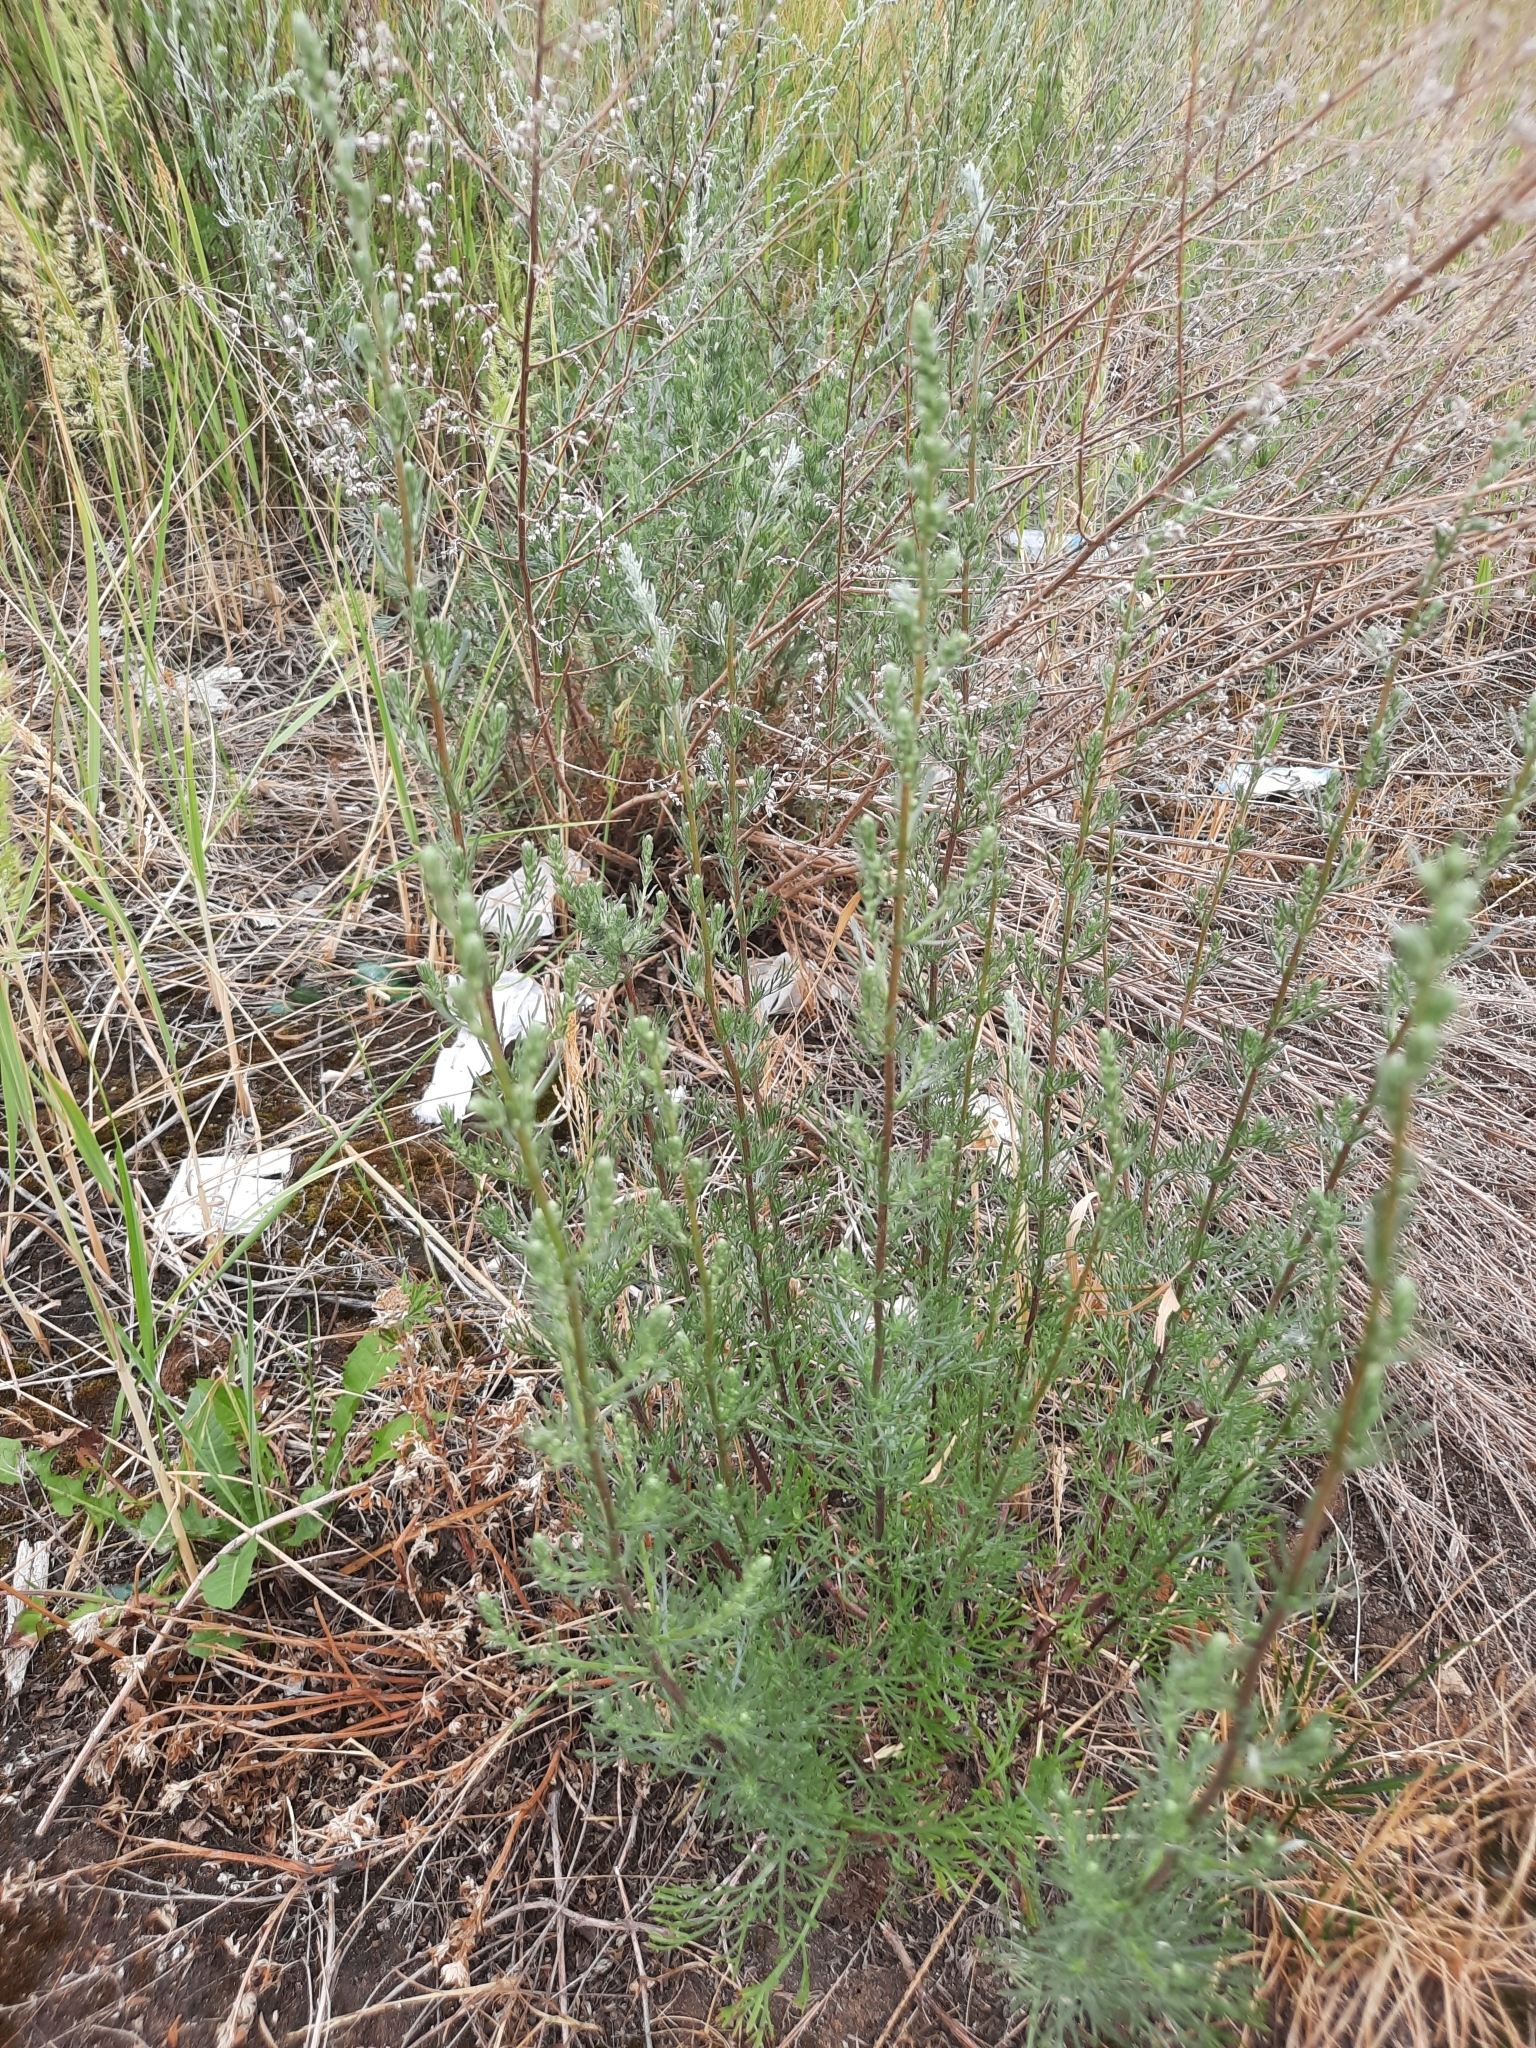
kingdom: Plantae
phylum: Tracheophyta
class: Magnoliopsida
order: Asterales
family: Asteraceae
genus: Artemisia
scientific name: Artemisia campestris
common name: Field wormwood
